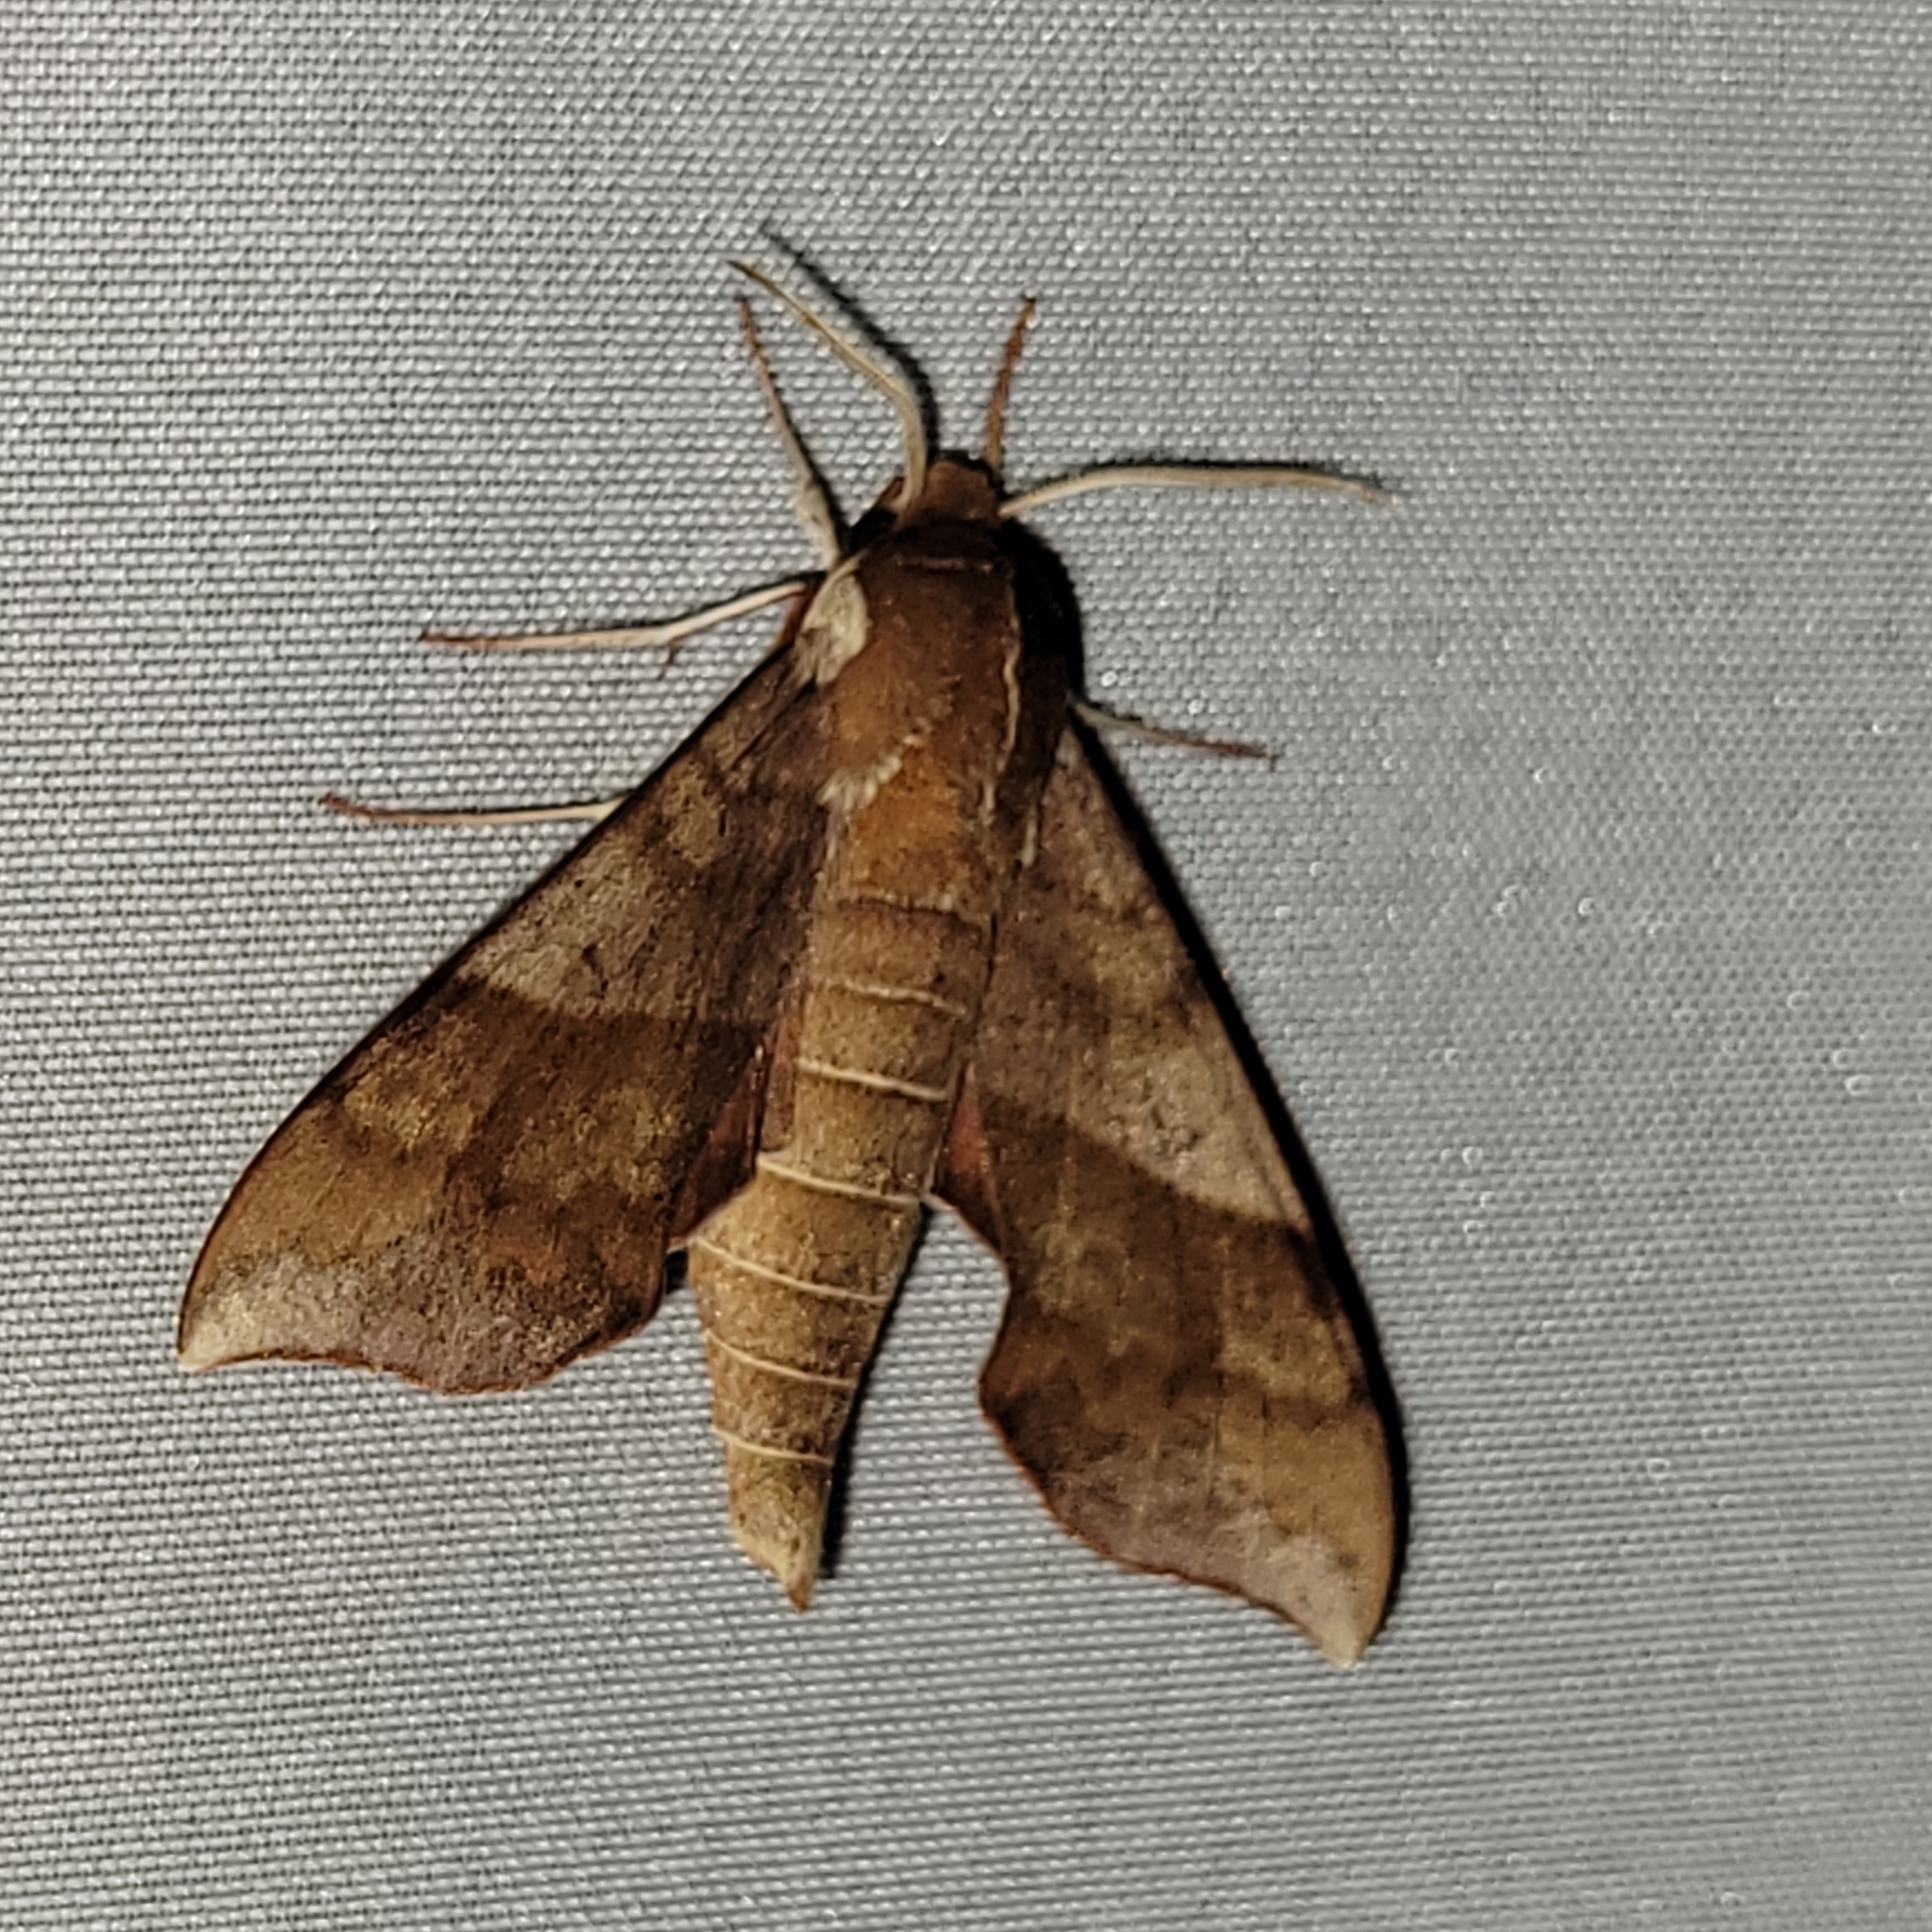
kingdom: Animalia
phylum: Arthropoda
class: Insecta
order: Lepidoptera
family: Sphingidae
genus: Darapsa
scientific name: Darapsa choerilus
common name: Azalea sphinx
